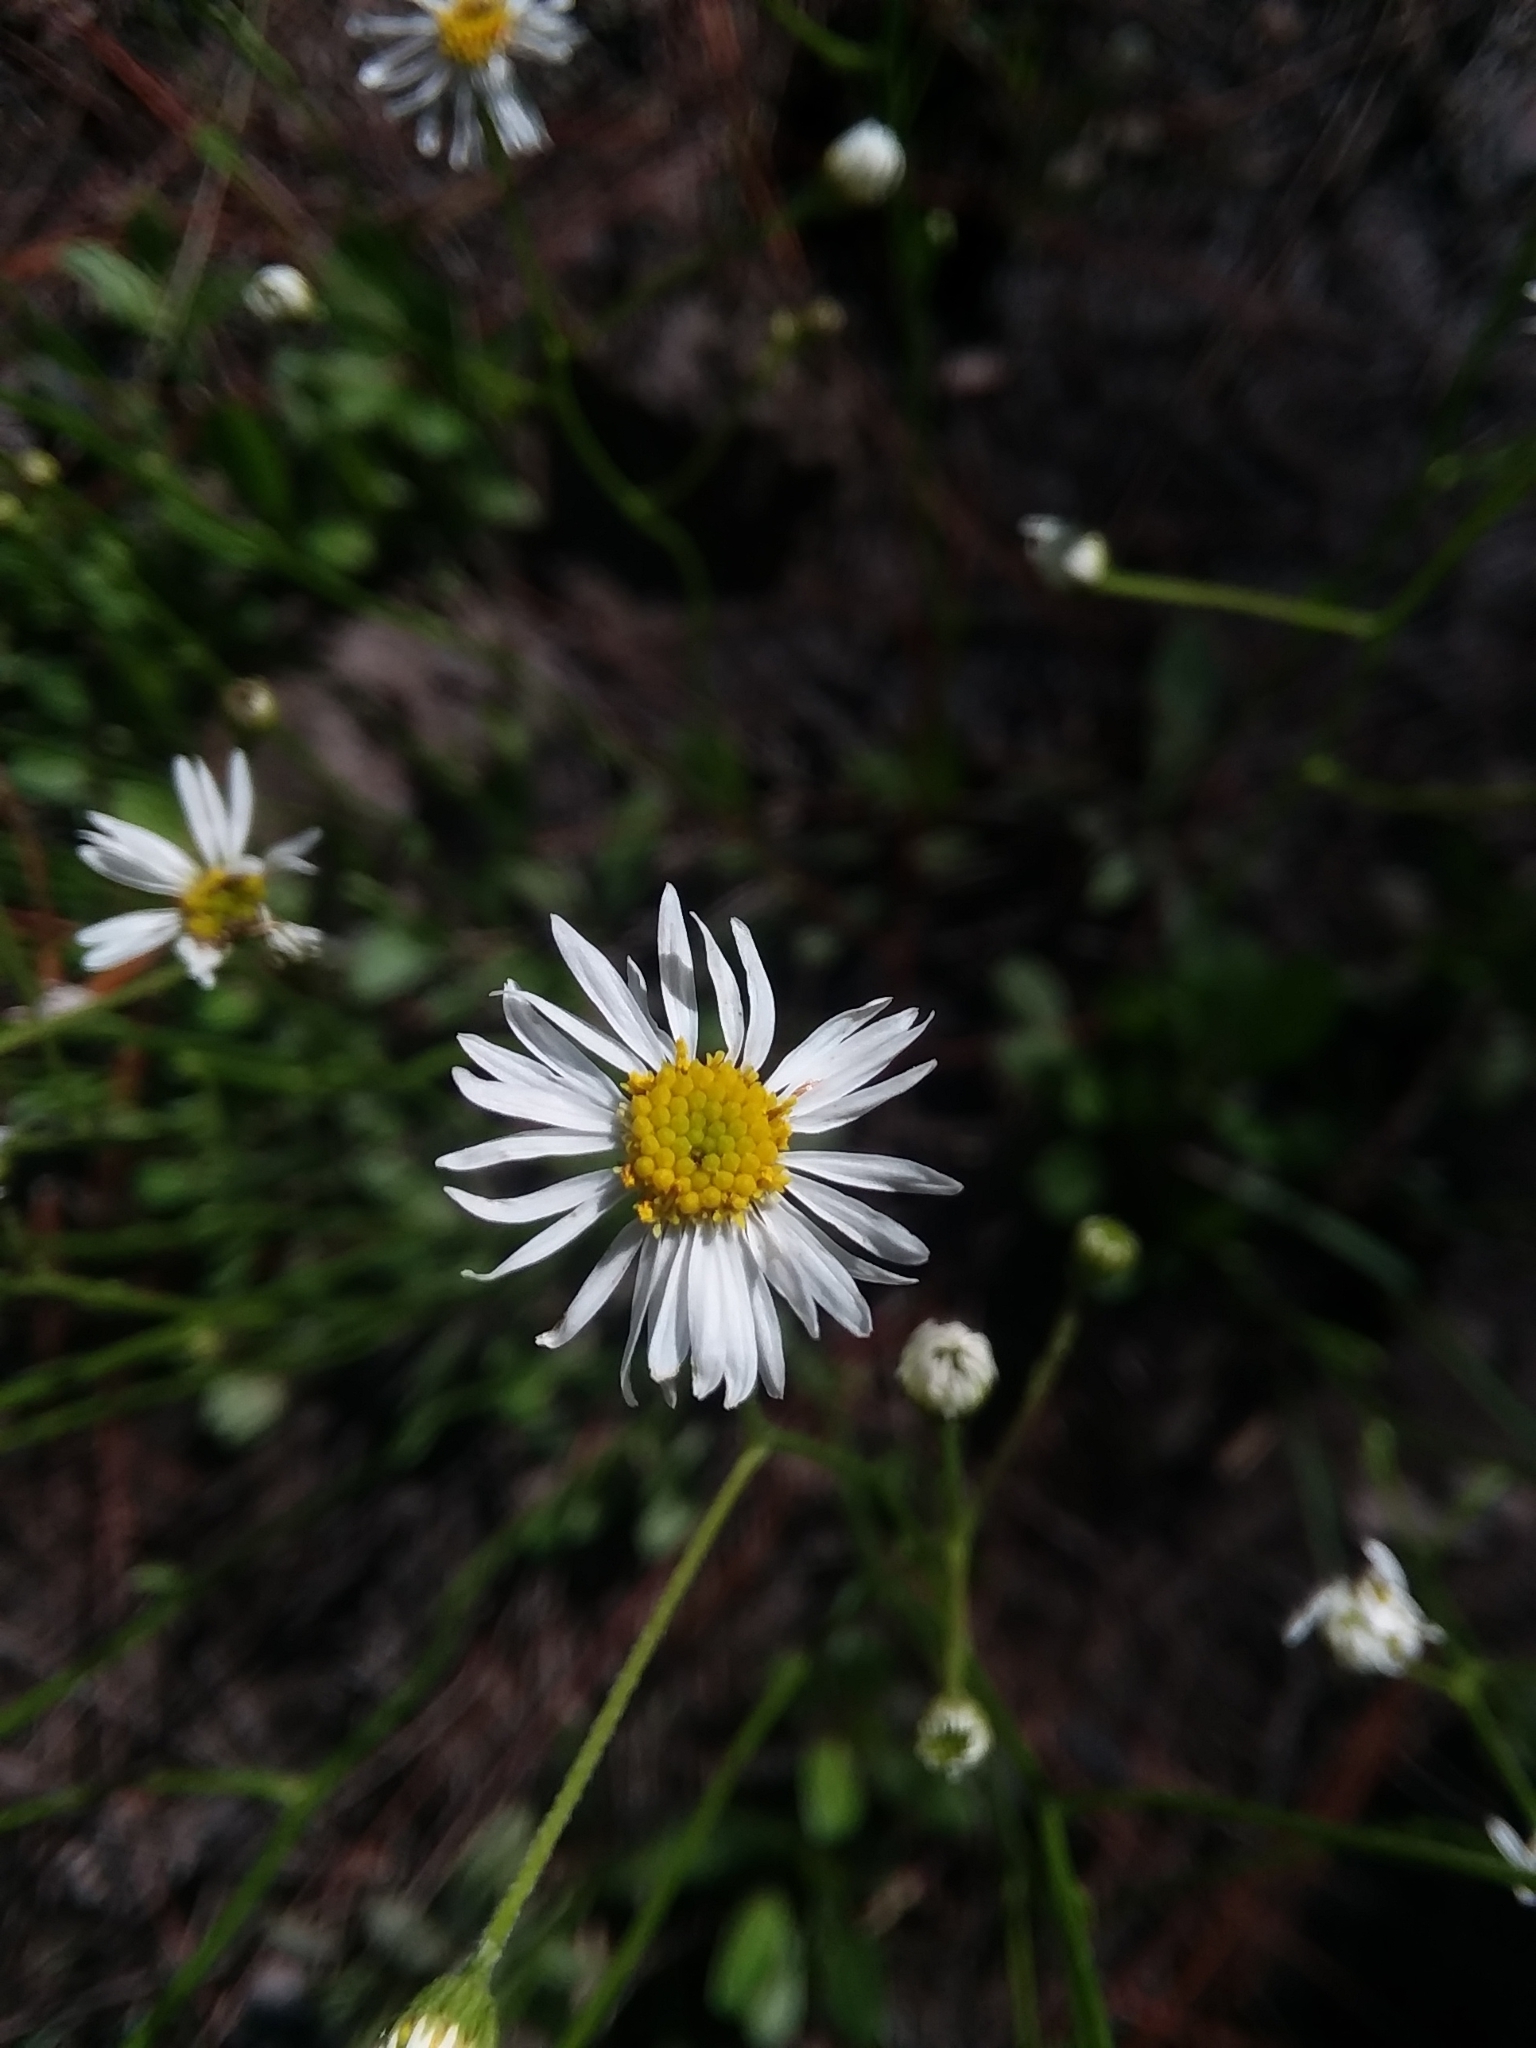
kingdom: Plantae
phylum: Tracheophyta
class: Magnoliopsida
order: Asterales
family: Asteraceae
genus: Erigeron
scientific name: Erigeron vernus
